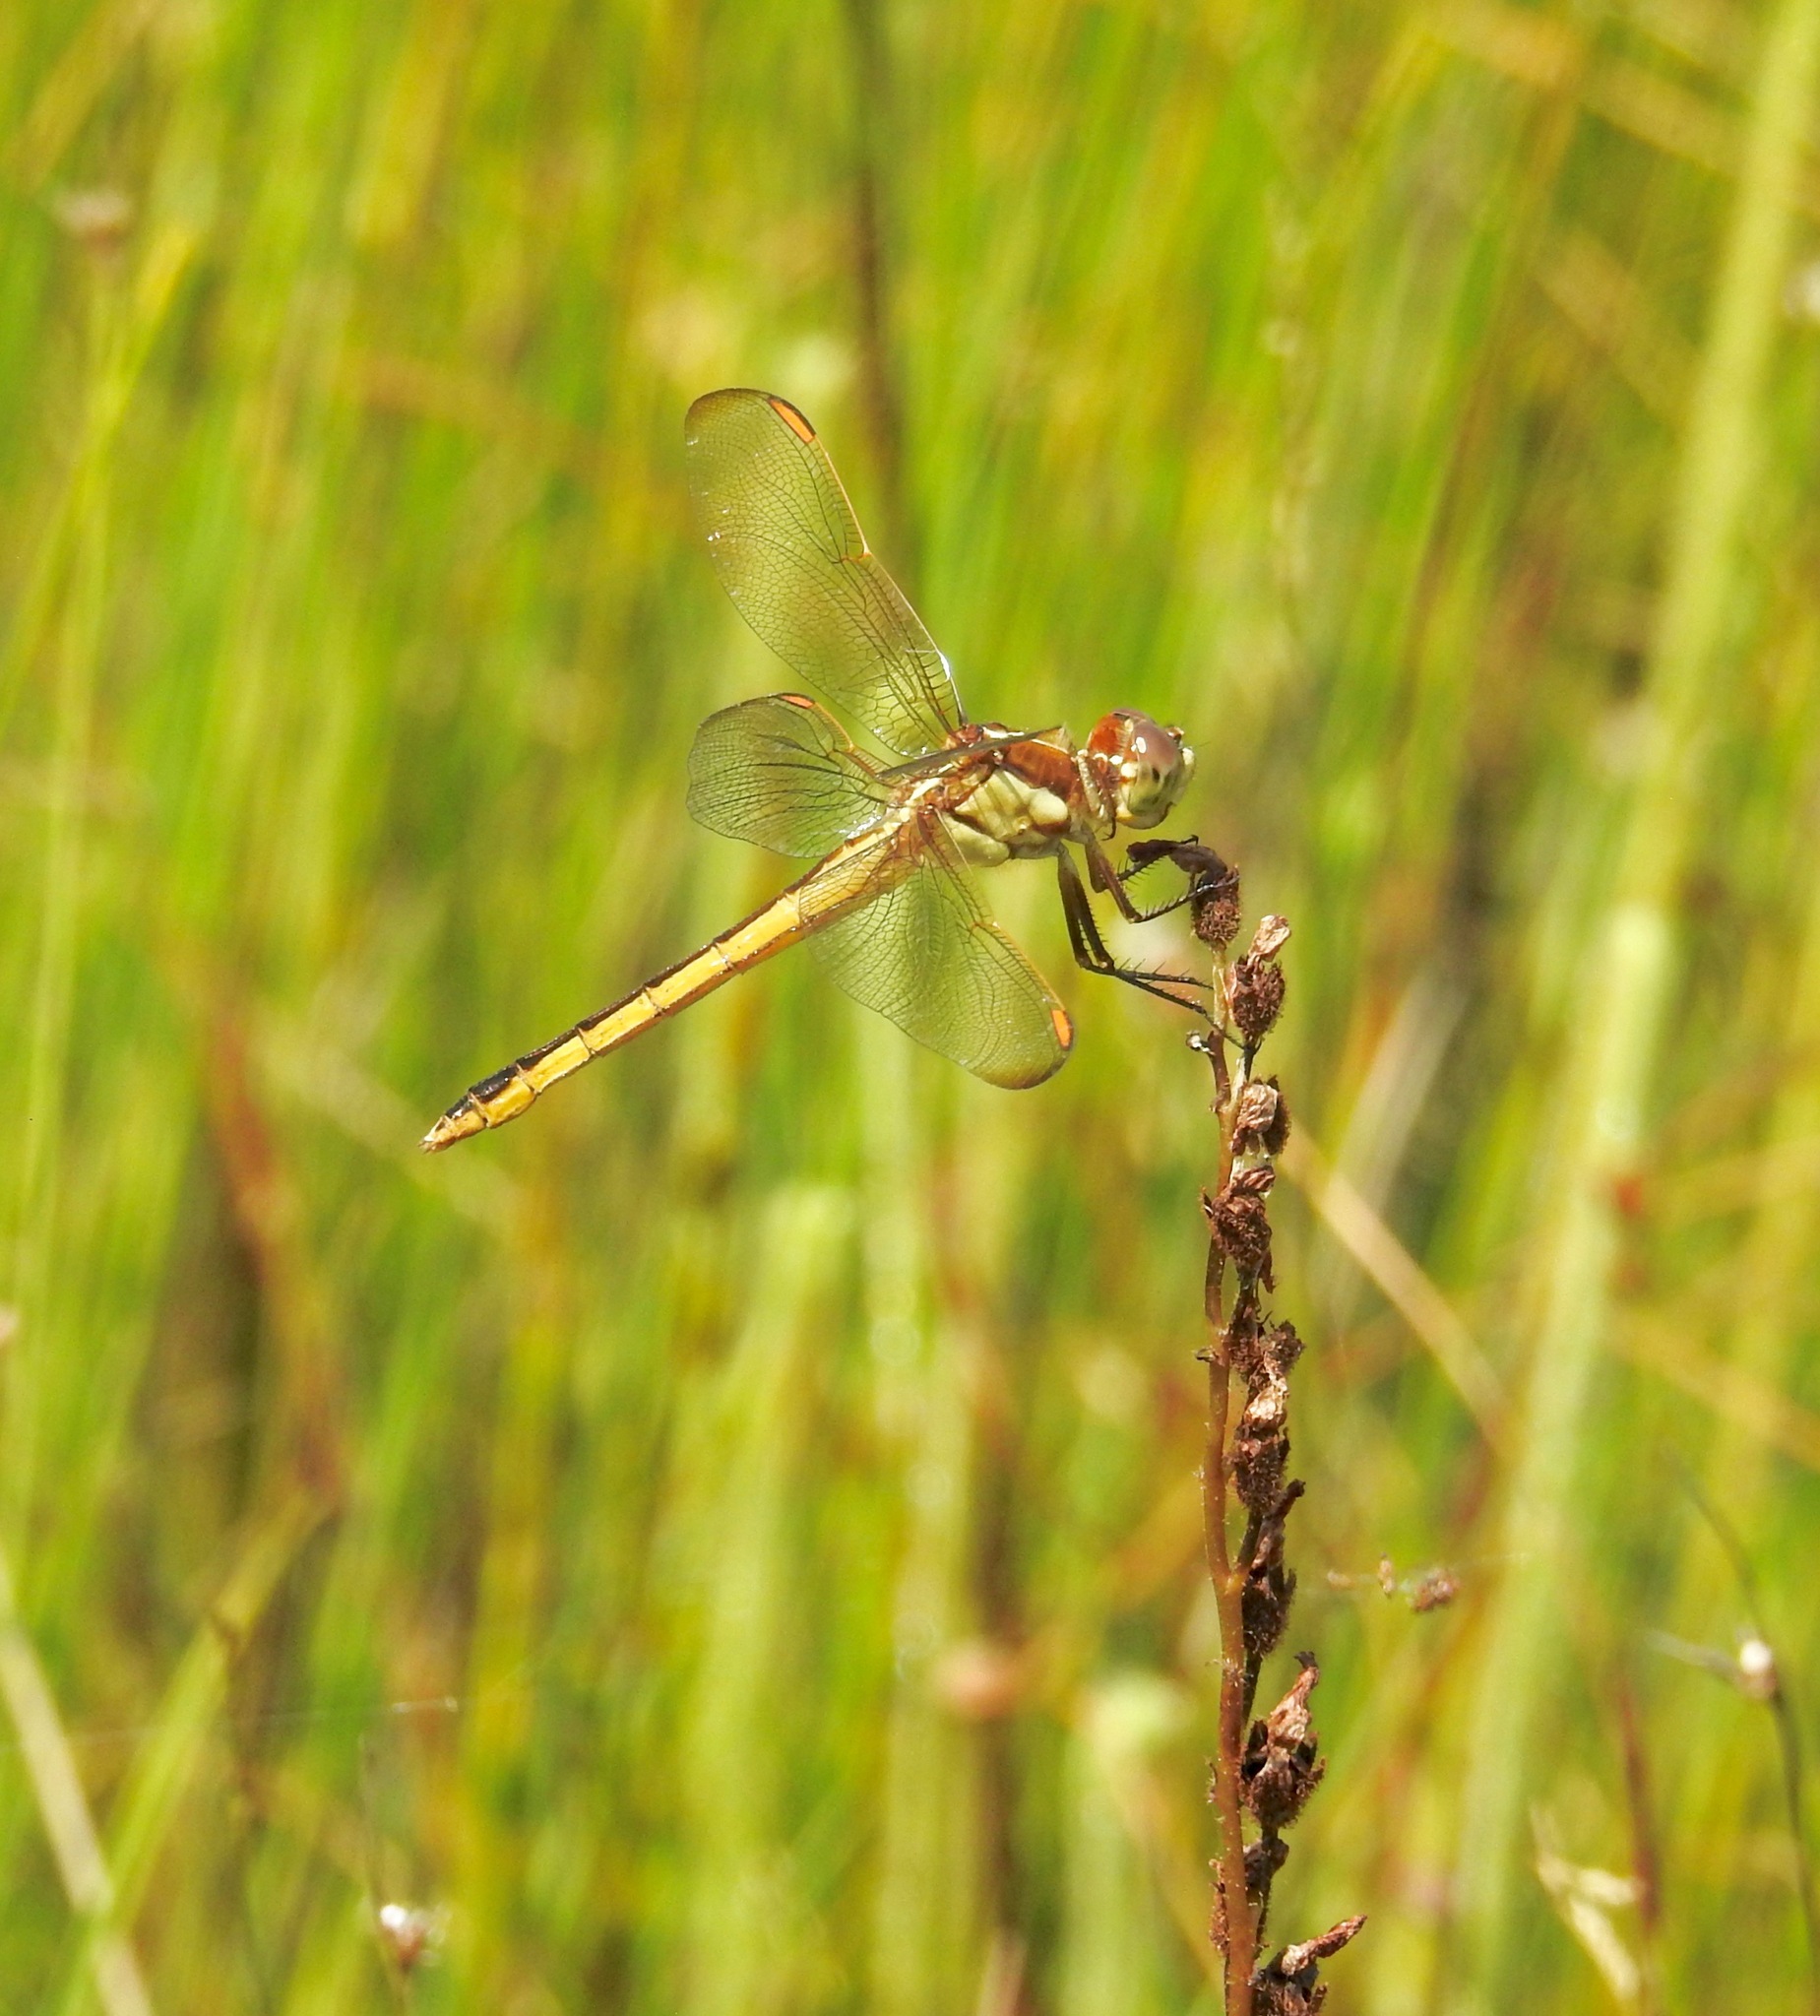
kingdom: Animalia
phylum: Arthropoda
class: Insecta
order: Odonata
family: Libellulidae
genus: Libellula
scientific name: Libellula auripennis
